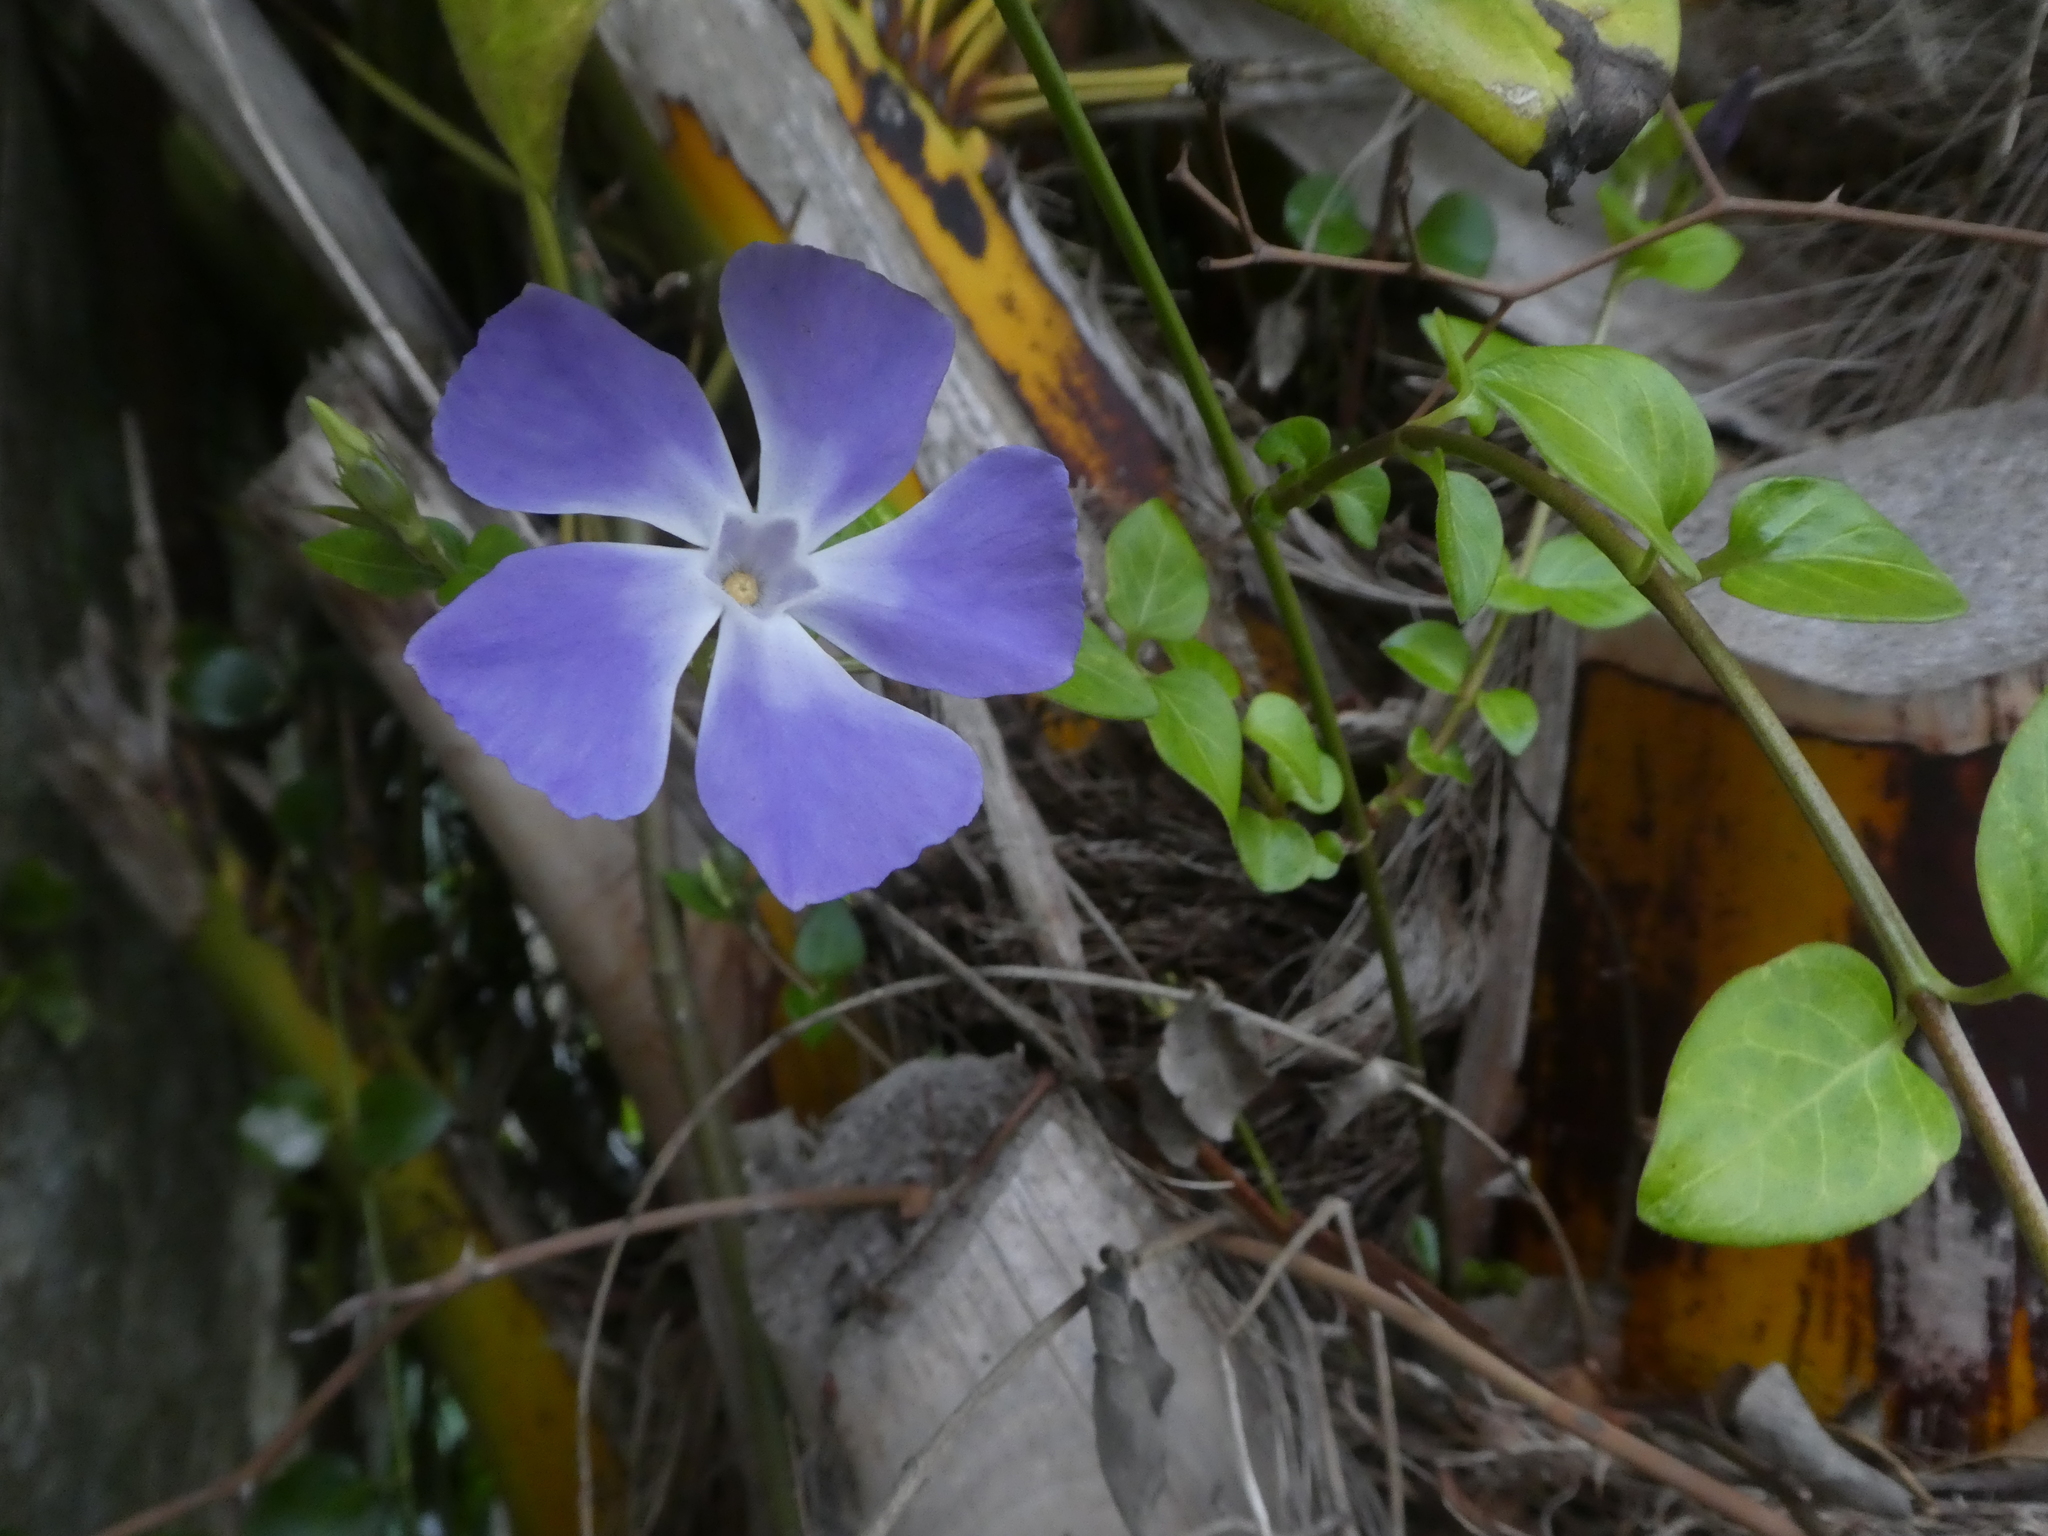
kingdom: Plantae
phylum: Tracheophyta
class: Magnoliopsida
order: Gentianales
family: Apocynaceae
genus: Vinca
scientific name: Vinca major
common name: Greater periwinkle
